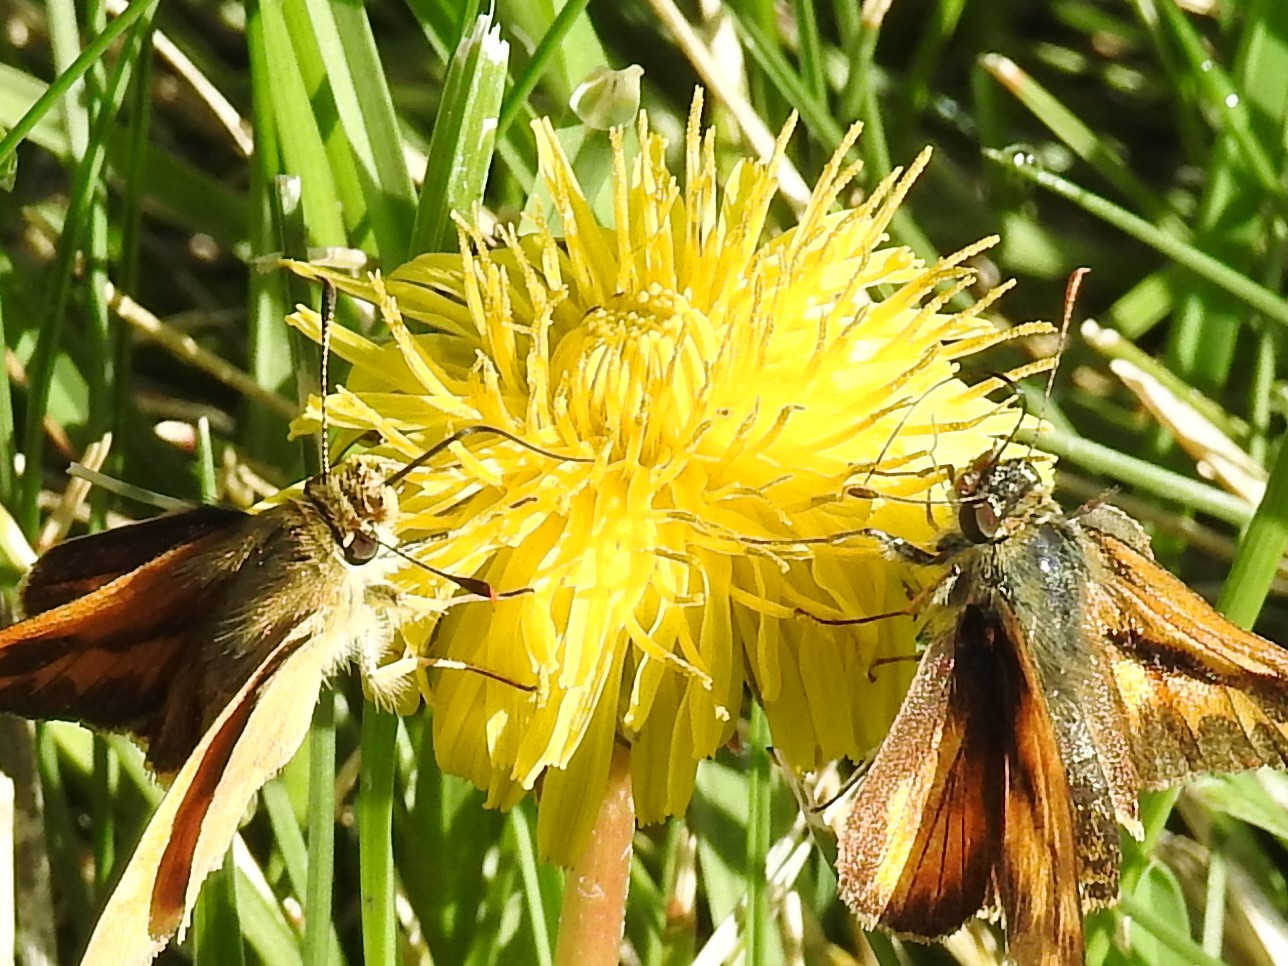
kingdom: Plantae
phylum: Tracheophyta
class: Magnoliopsida
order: Asterales
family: Asteraceae
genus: Taraxacum
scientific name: Taraxacum officinale
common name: Common dandelion
